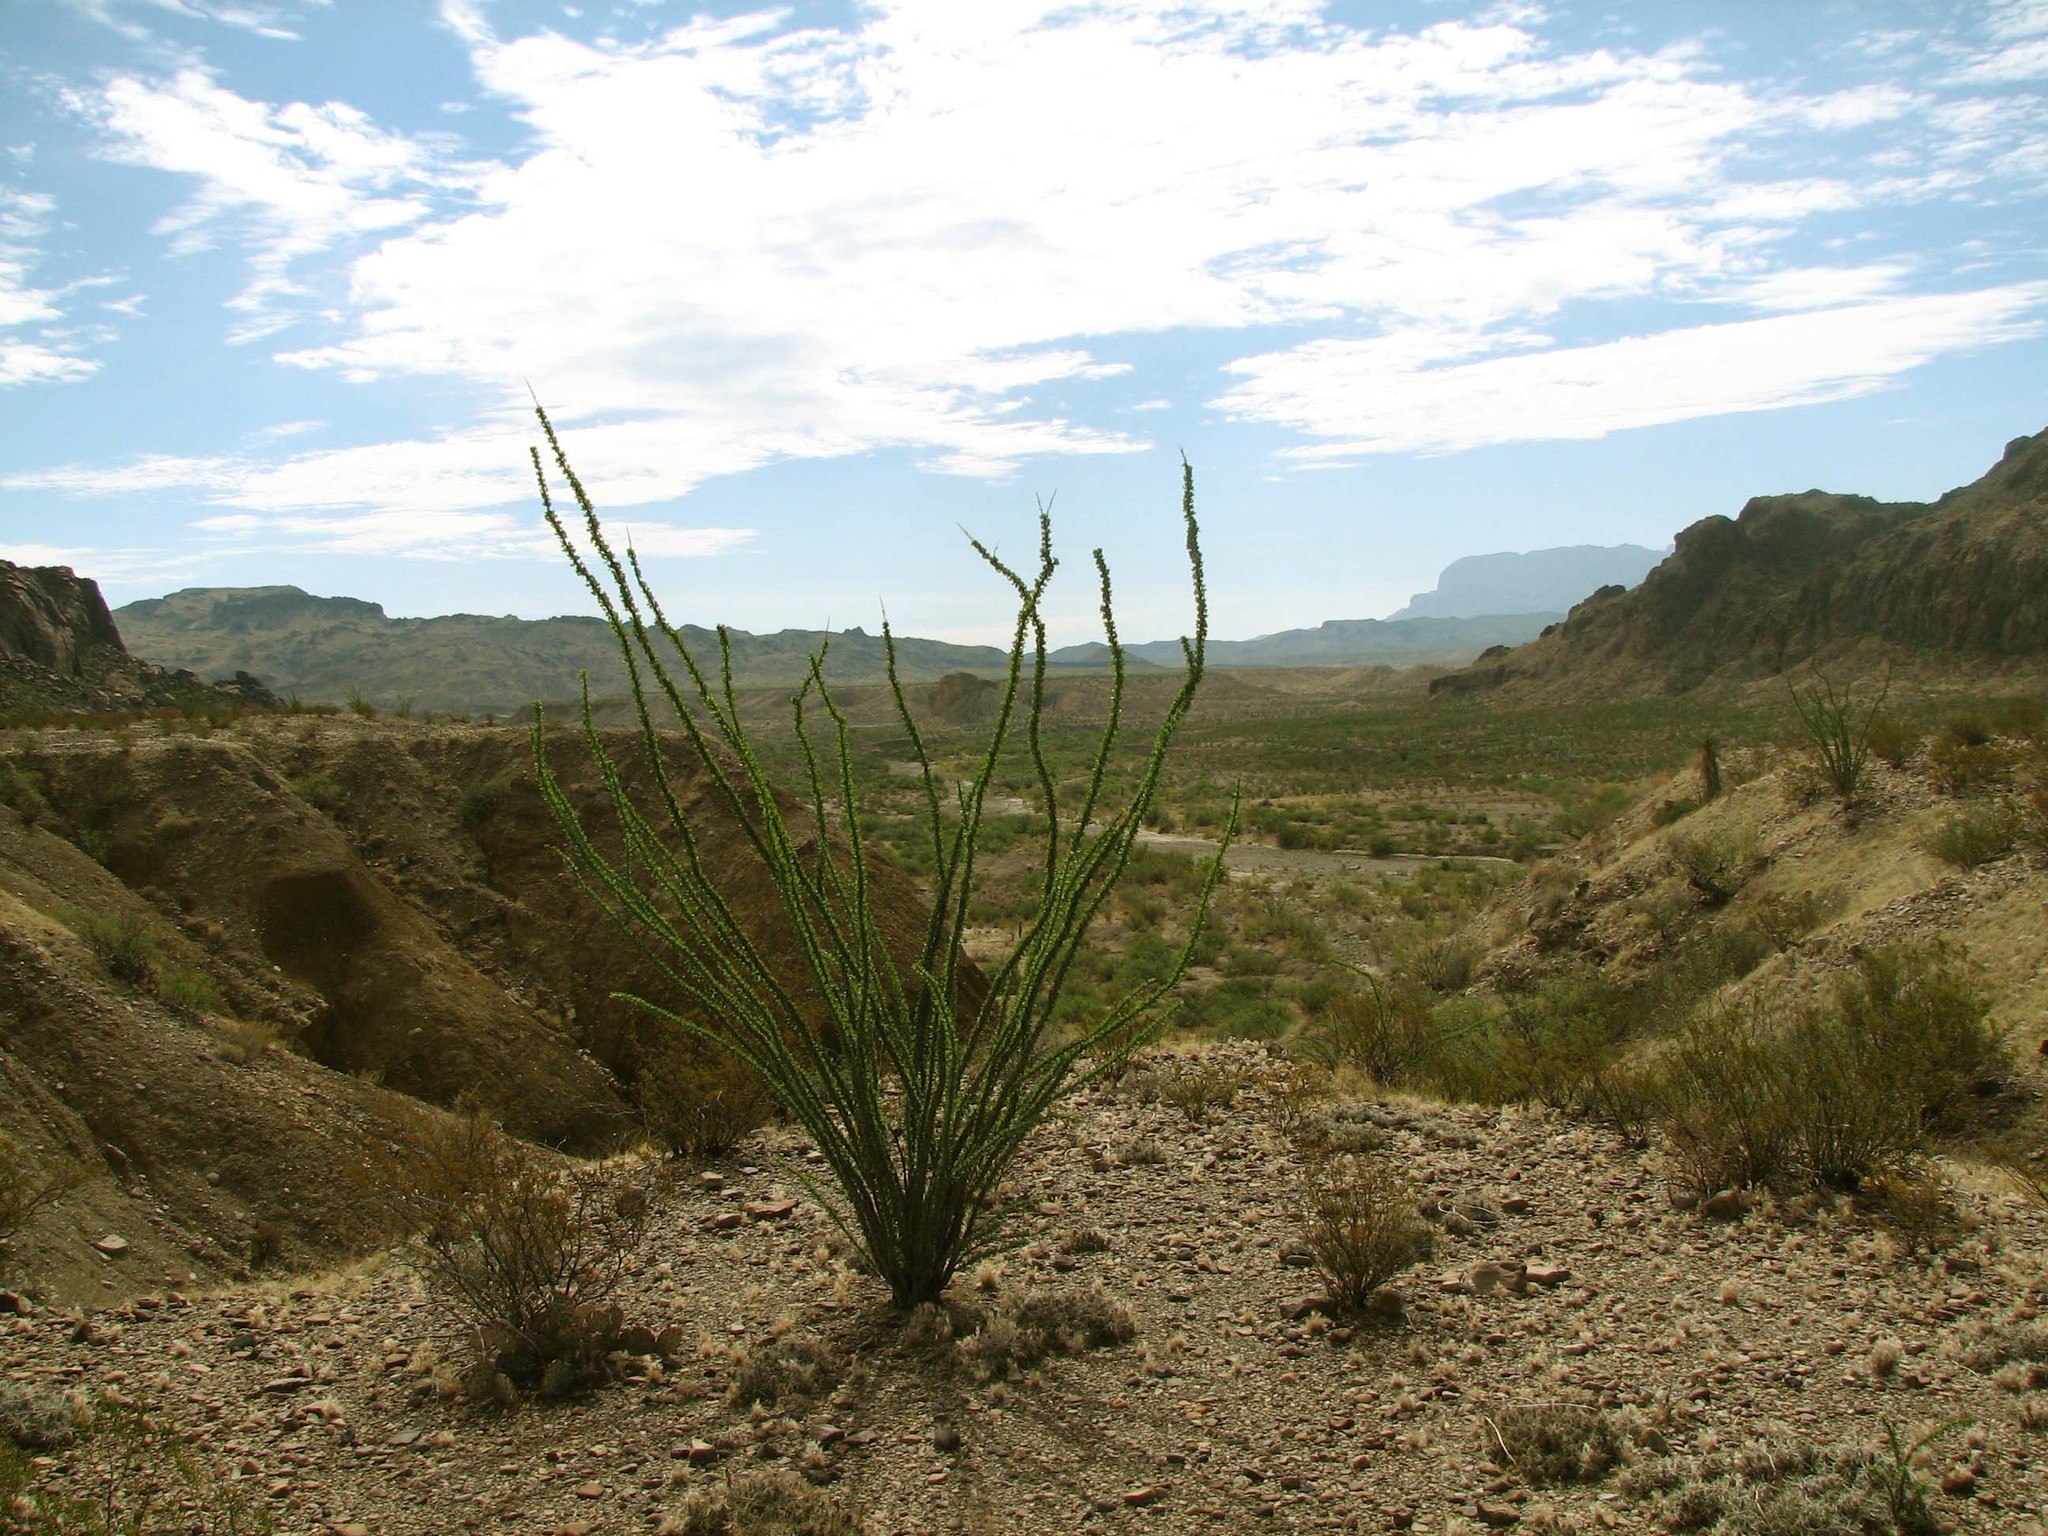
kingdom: Plantae
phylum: Tracheophyta
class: Magnoliopsida
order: Ericales
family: Fouquieriaceae
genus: Fouquieria
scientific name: Fouquieria splendens
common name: Vine-cactus
